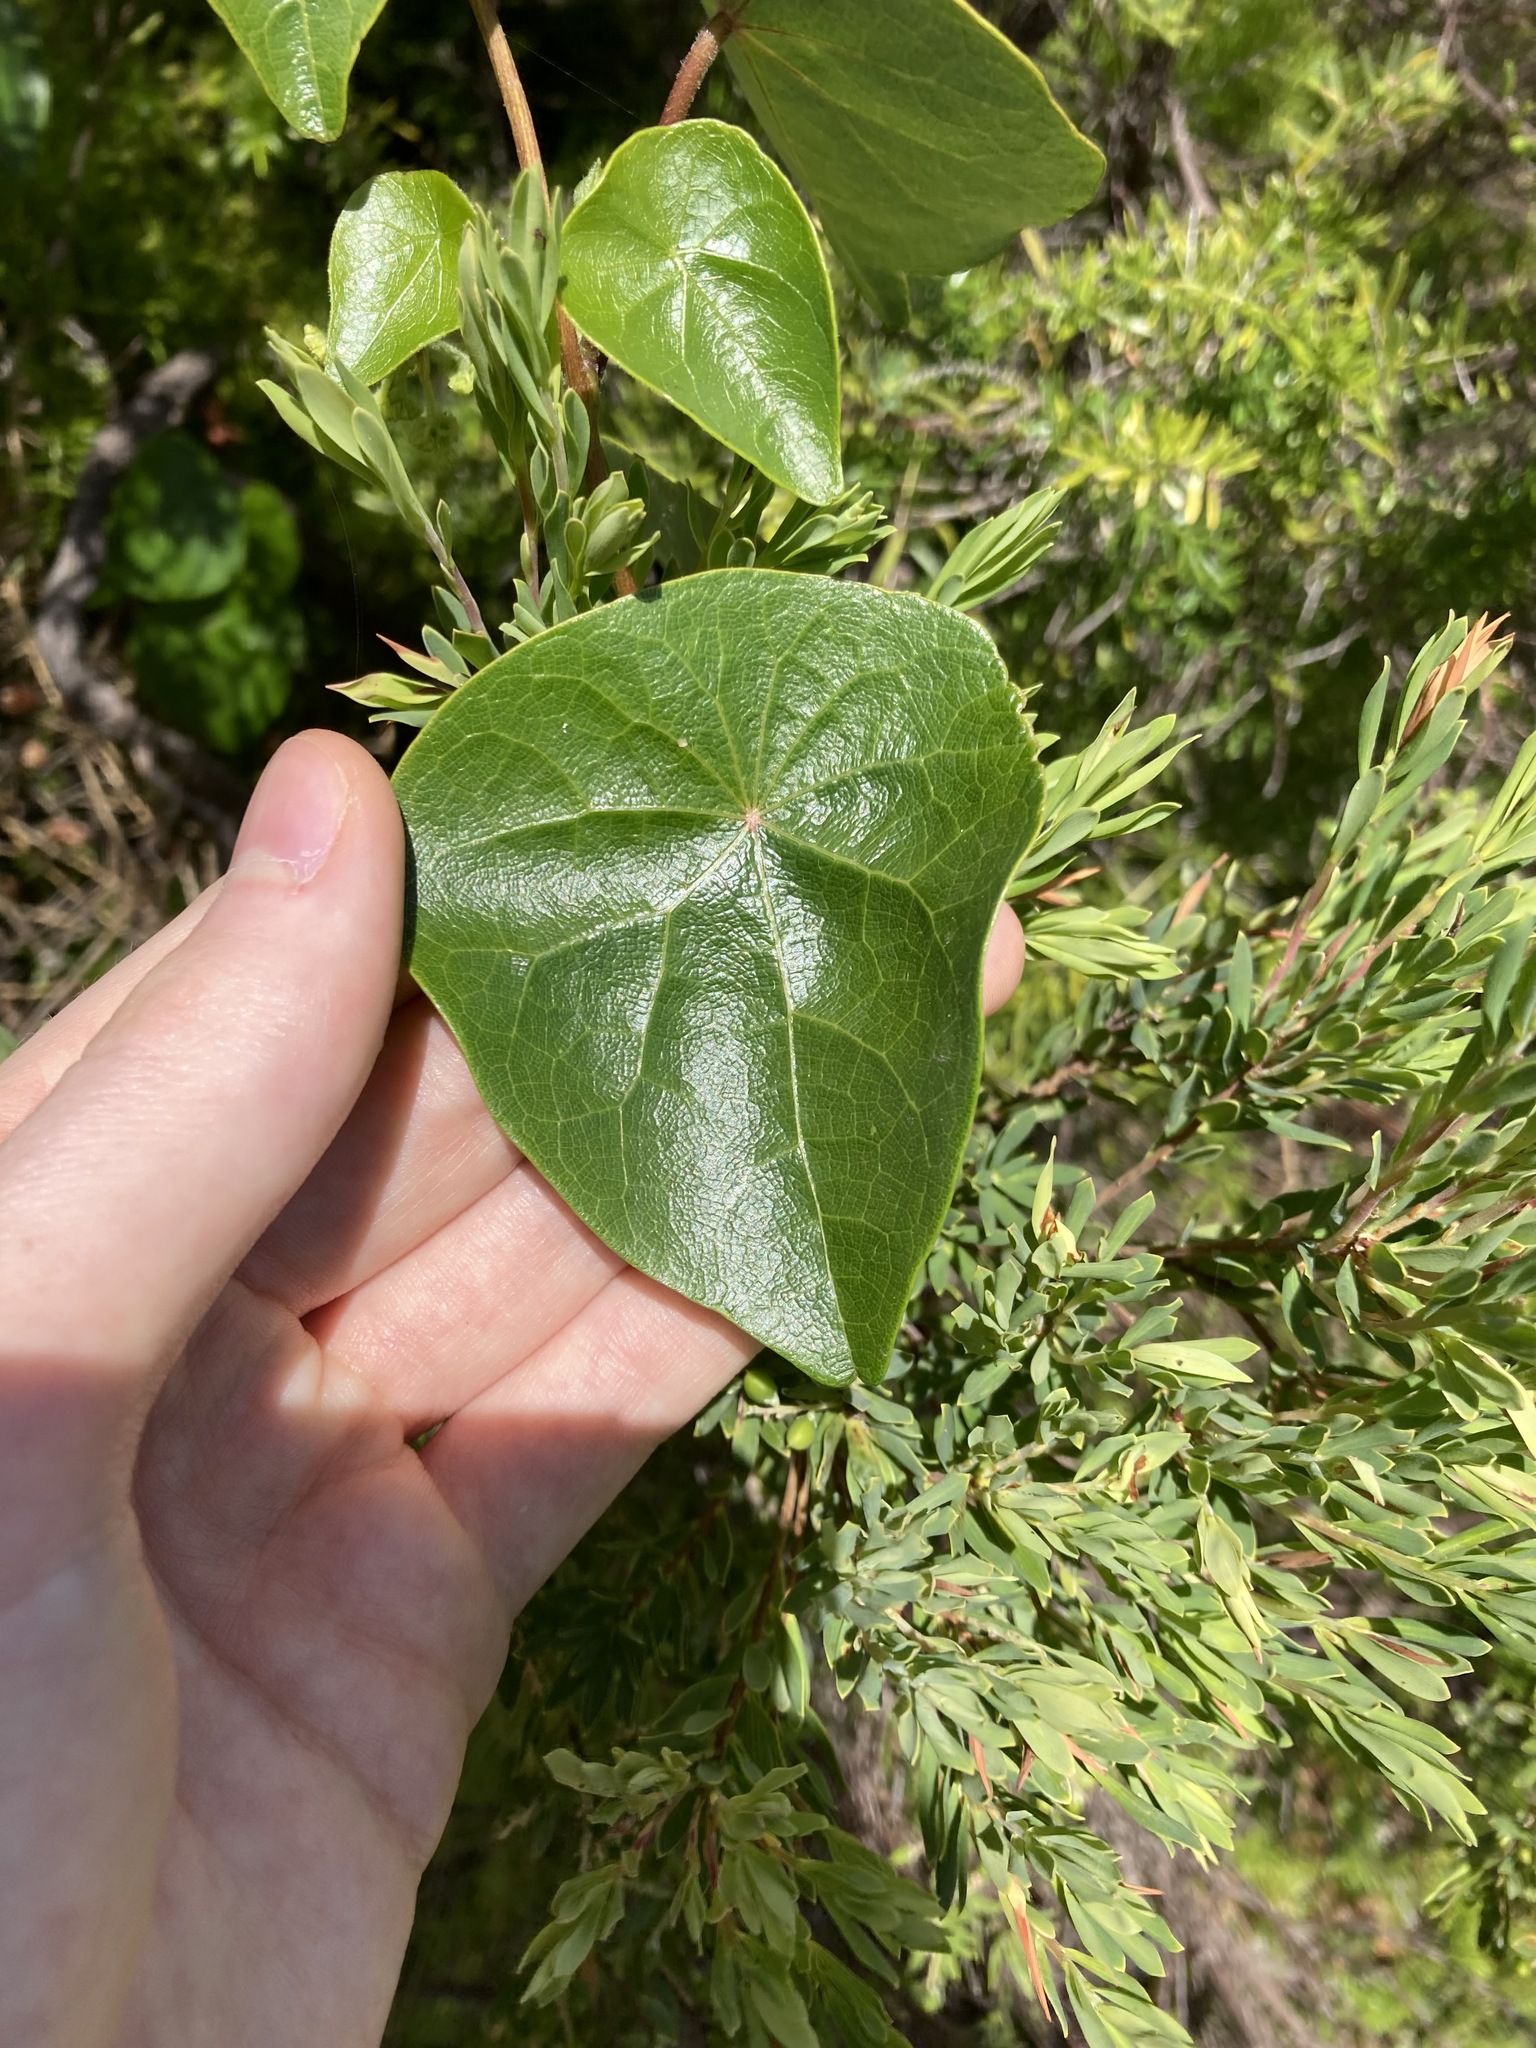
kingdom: Plantae
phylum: Tracheophyta
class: Magnoliopsida
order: Ranunculales
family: Menispermaceae
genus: Stephania
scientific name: Stephania japonica
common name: Snake vine
